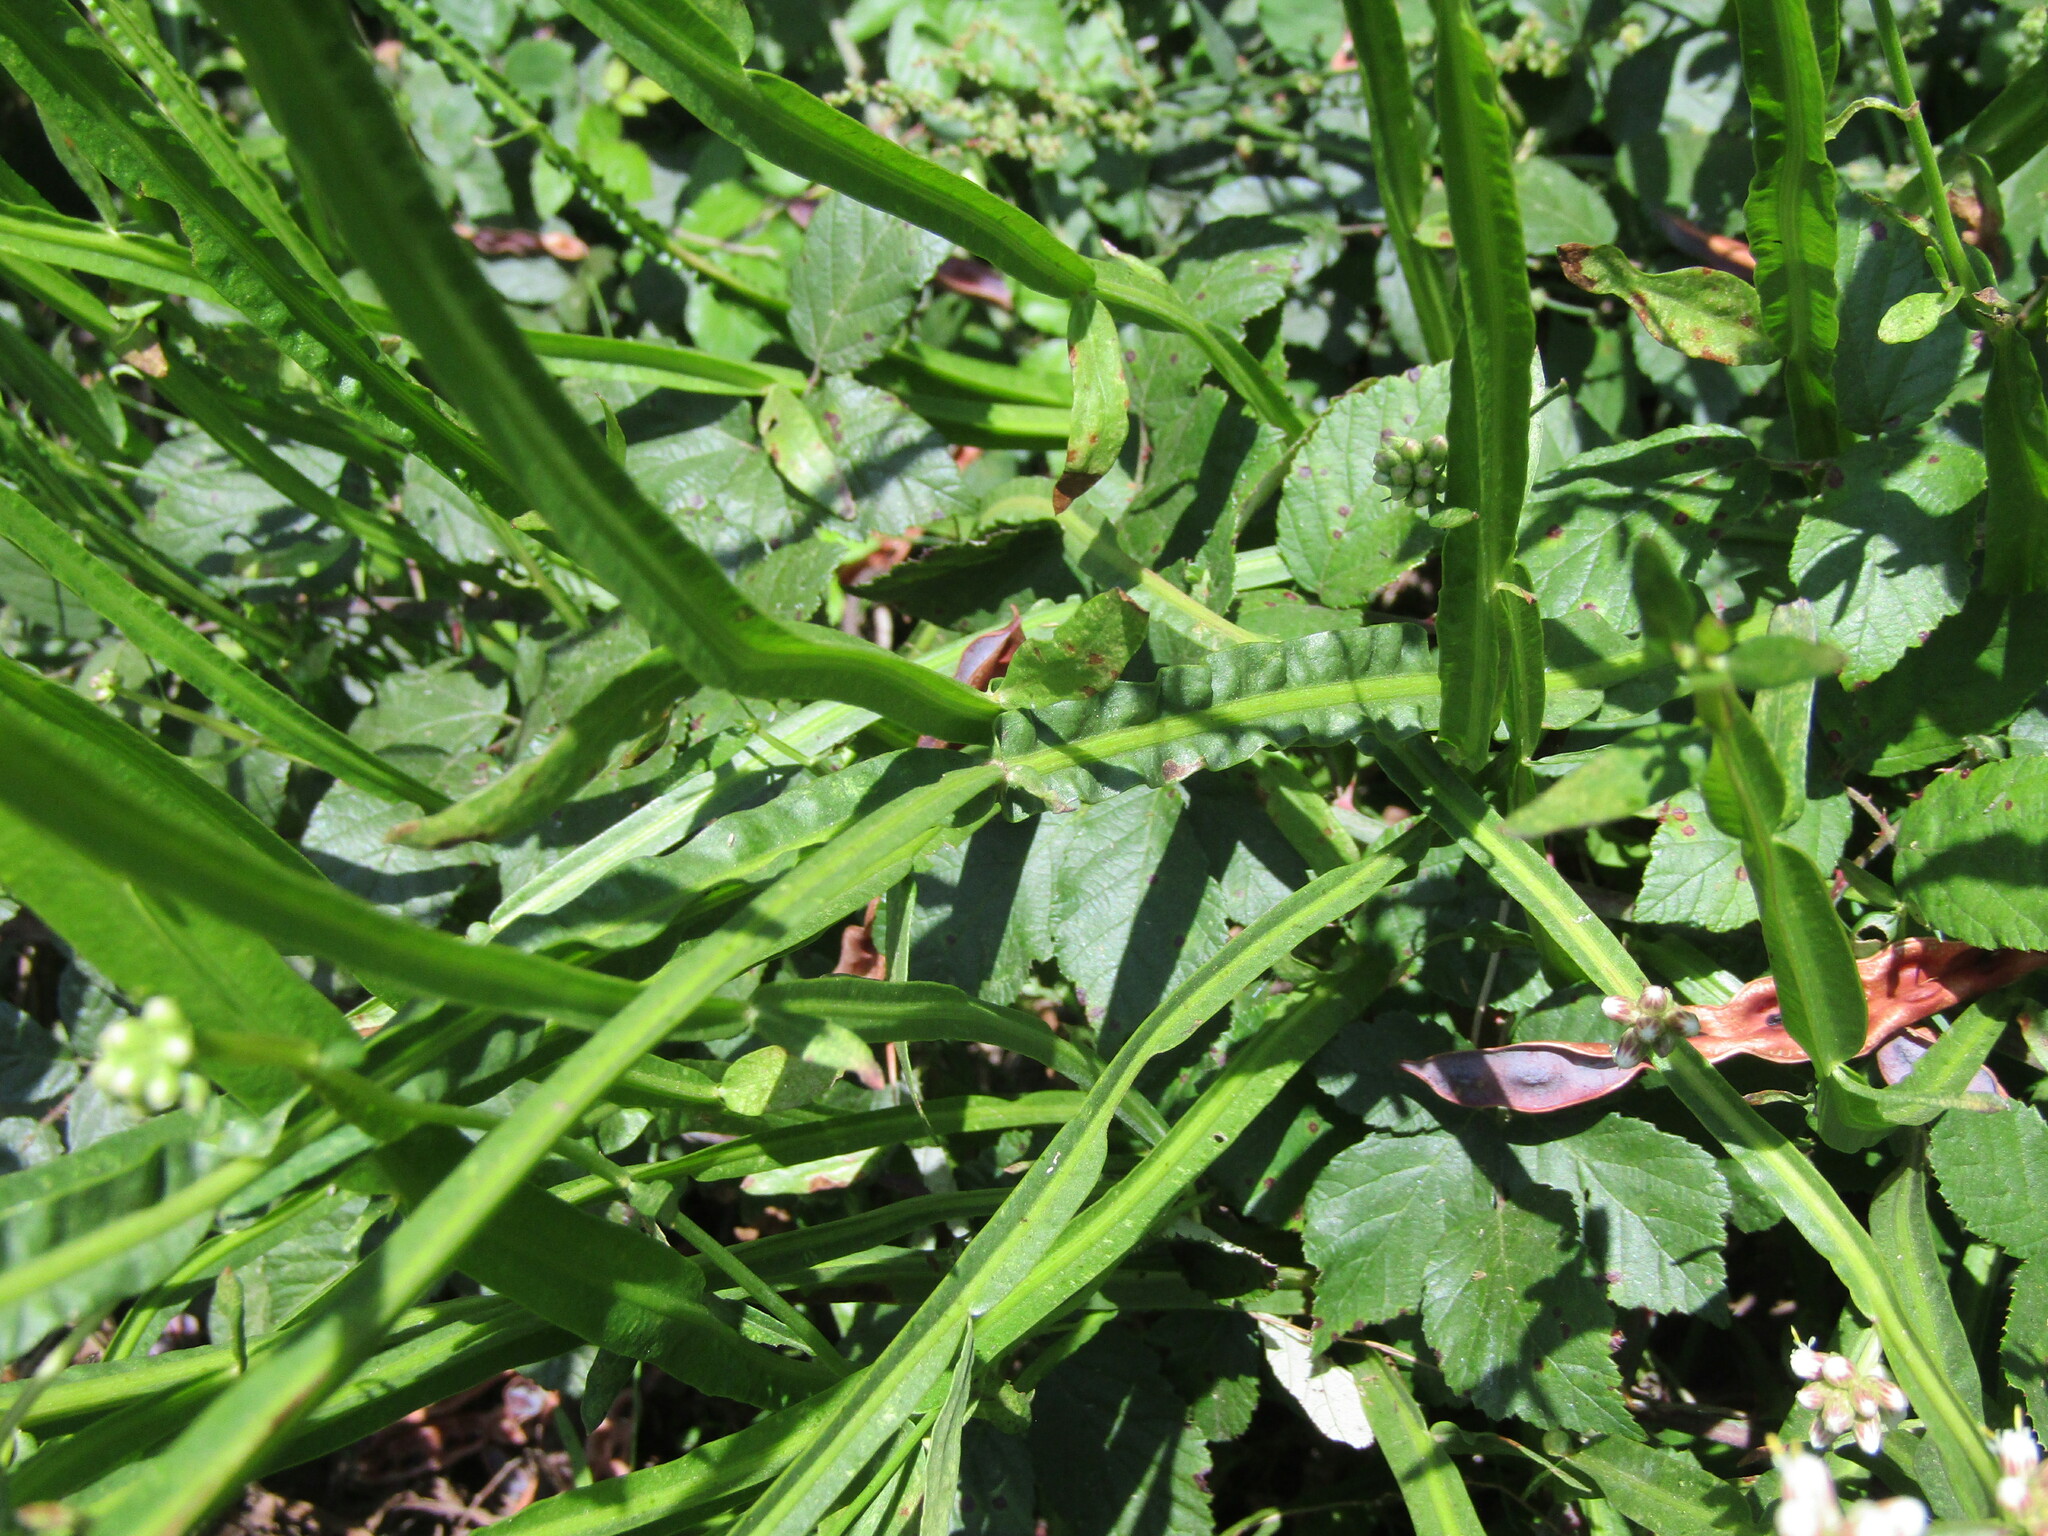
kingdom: Plantae
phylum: Tracheophyta
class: Magnoliopsida
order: Asterales
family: Asteraceae
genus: Baccharis
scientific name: Baccharis sagittalis
